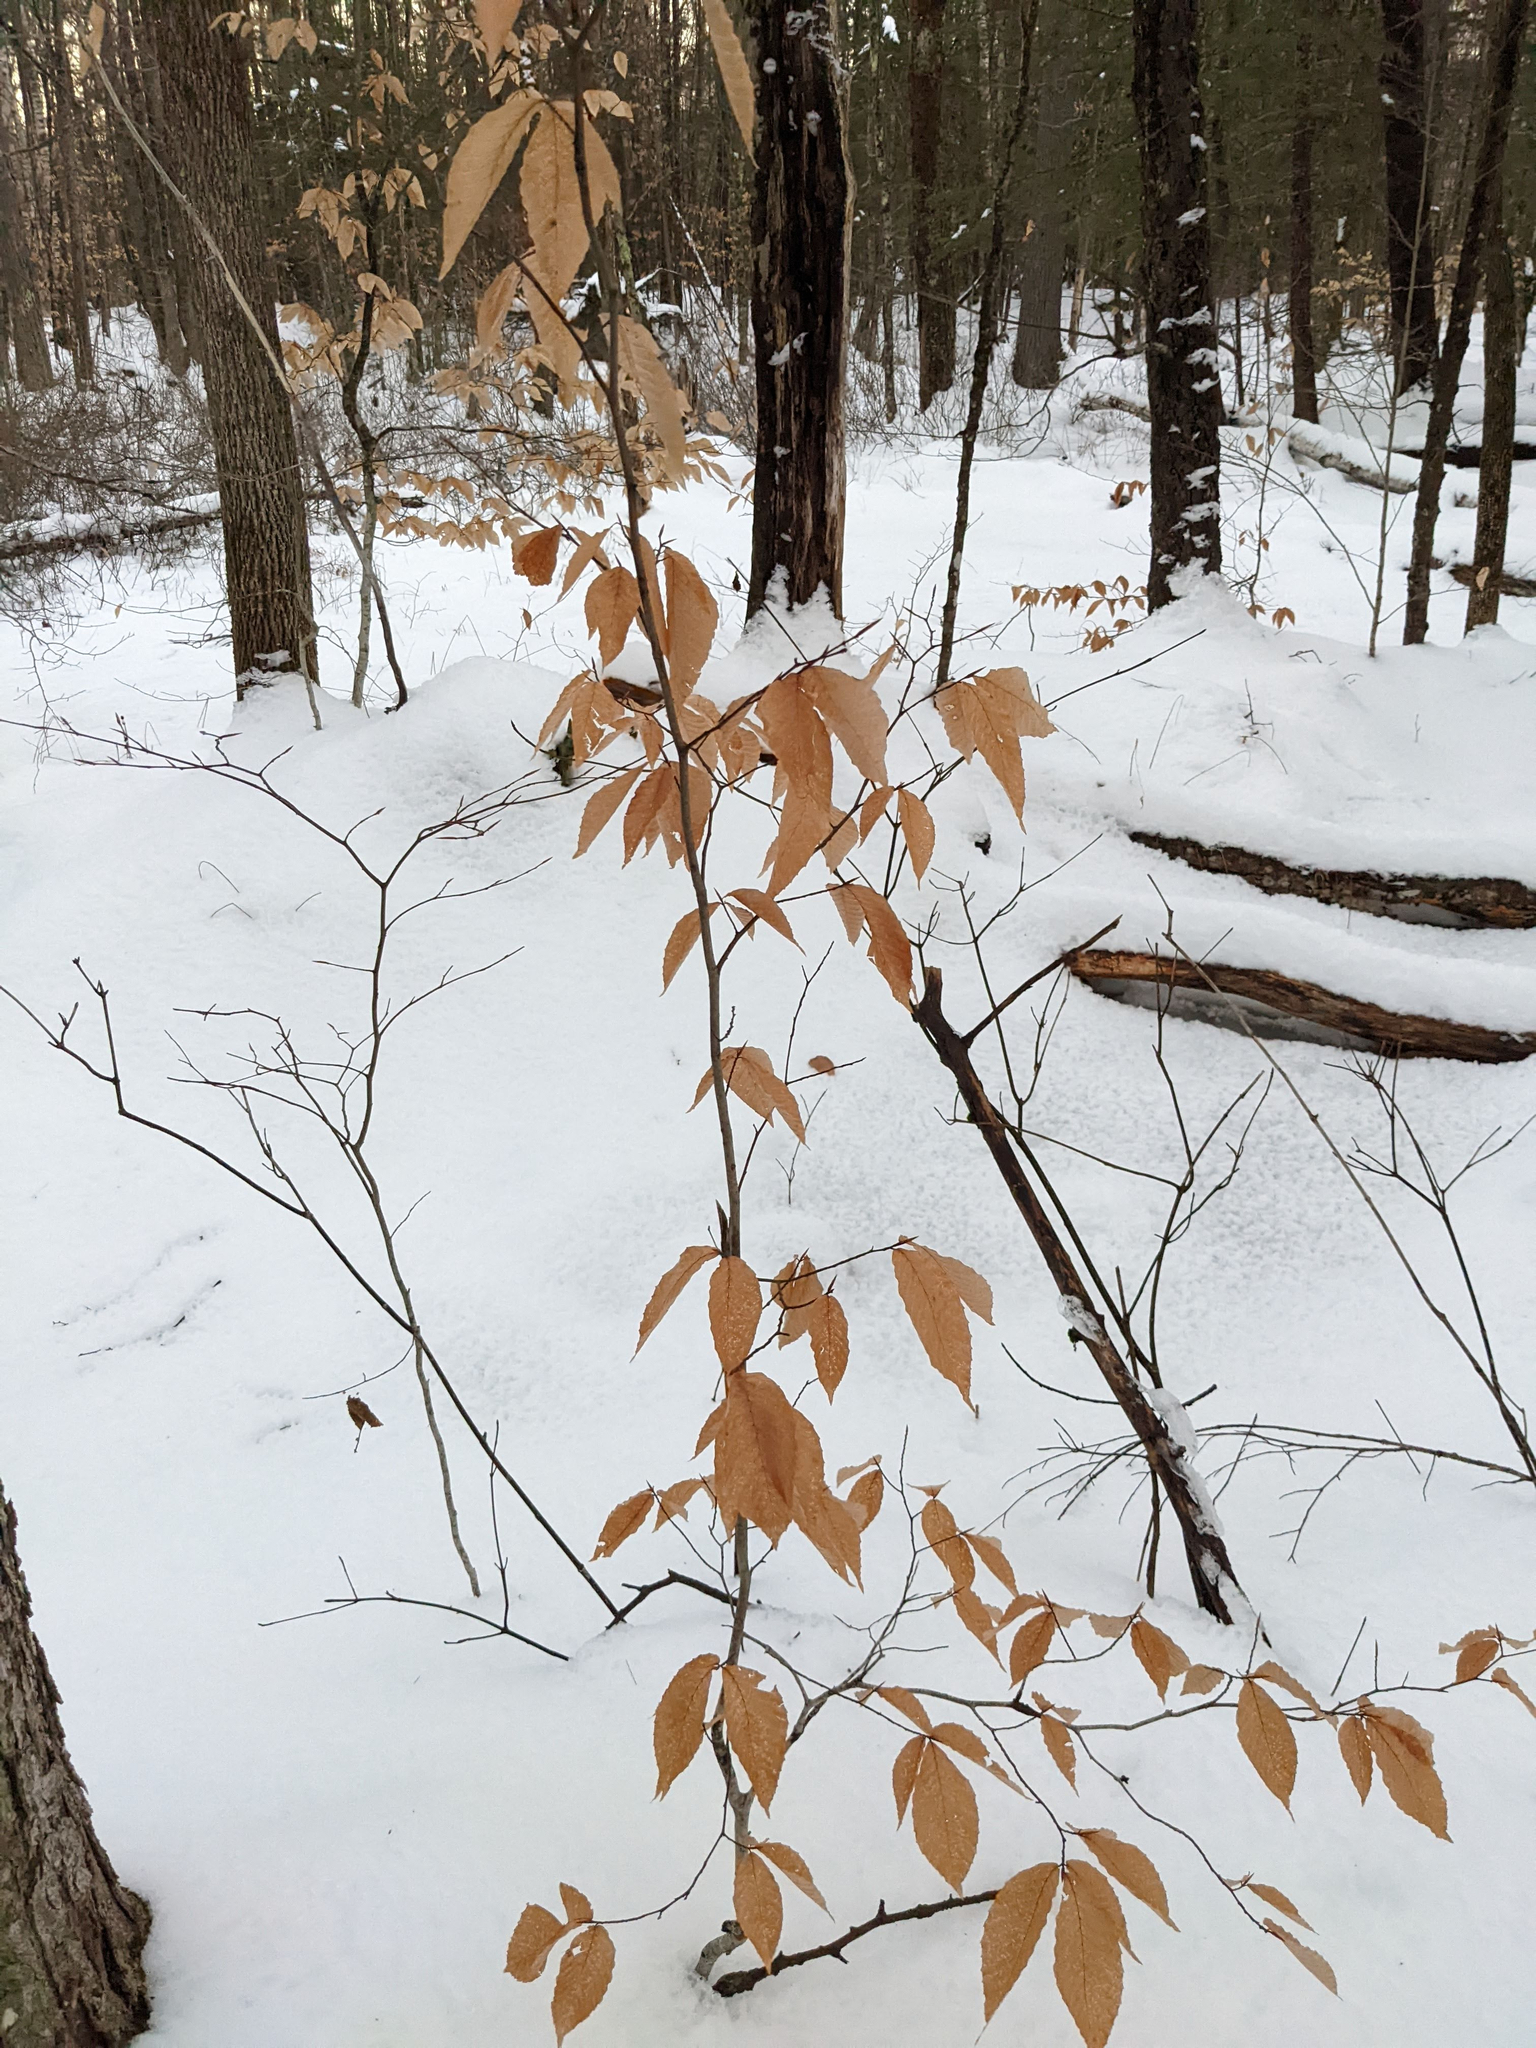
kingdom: Plantae
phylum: Tracheophyta
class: Magnoliopsida
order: Fagales
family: Fagaceae
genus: Fagus
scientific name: Fagus grandifolia
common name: American beech
